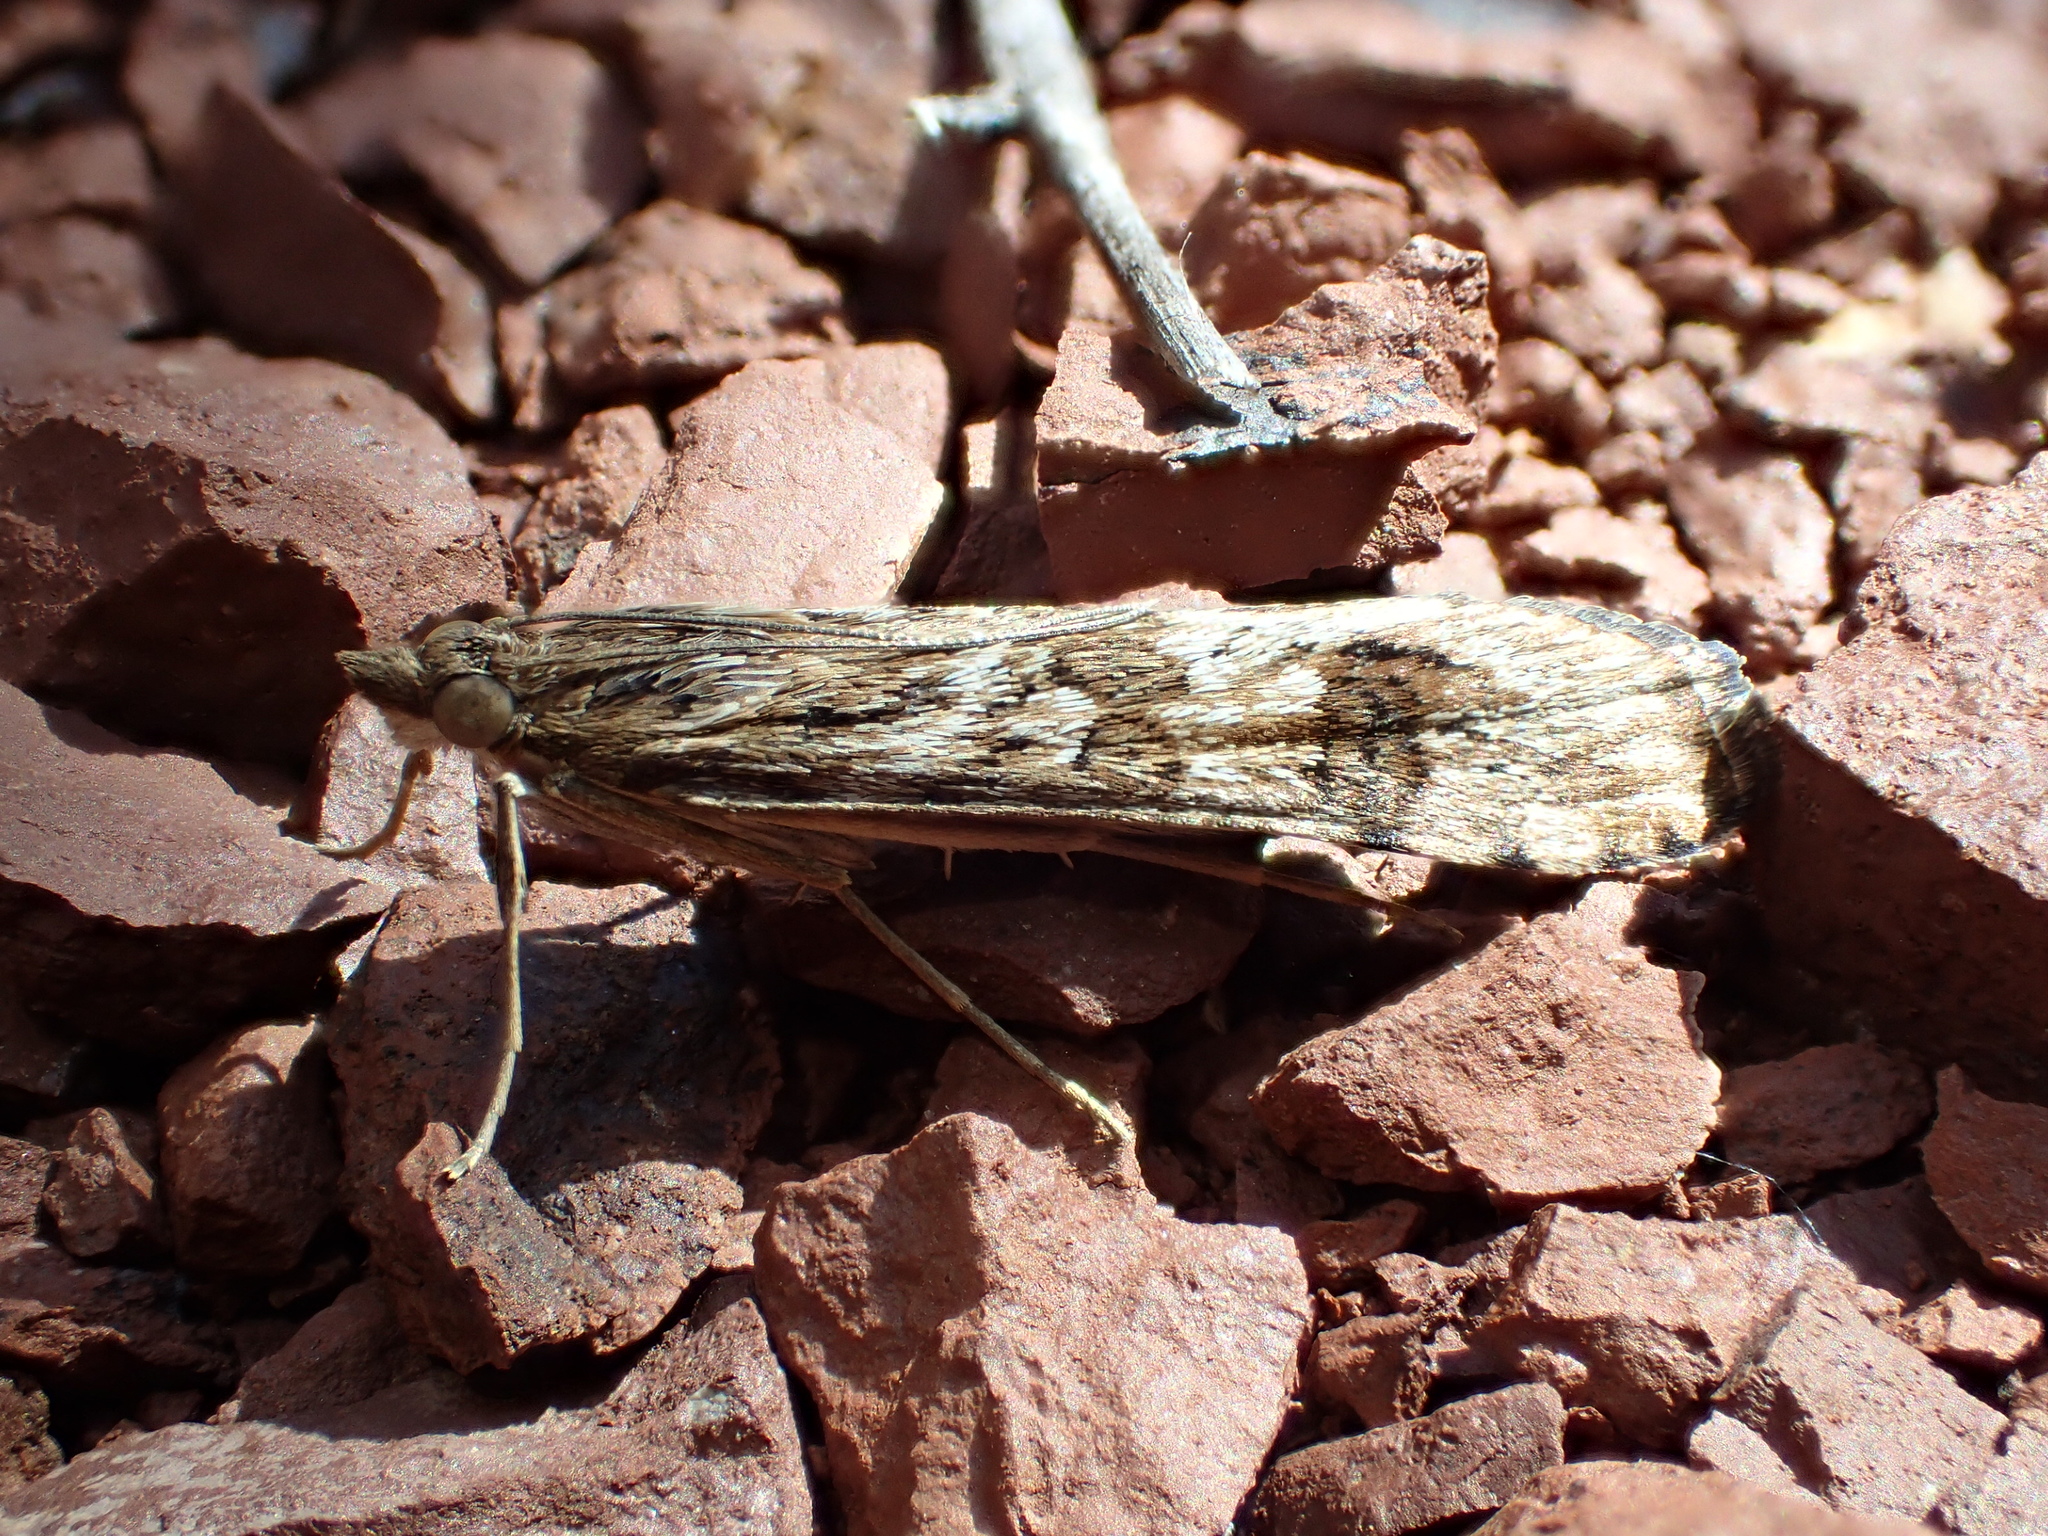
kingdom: Animalia
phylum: Arthropoda
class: Insecta
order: Lepidoptera
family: Crambidae
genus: Nomophila
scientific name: Nomophila noctuella
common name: Rush veneer
